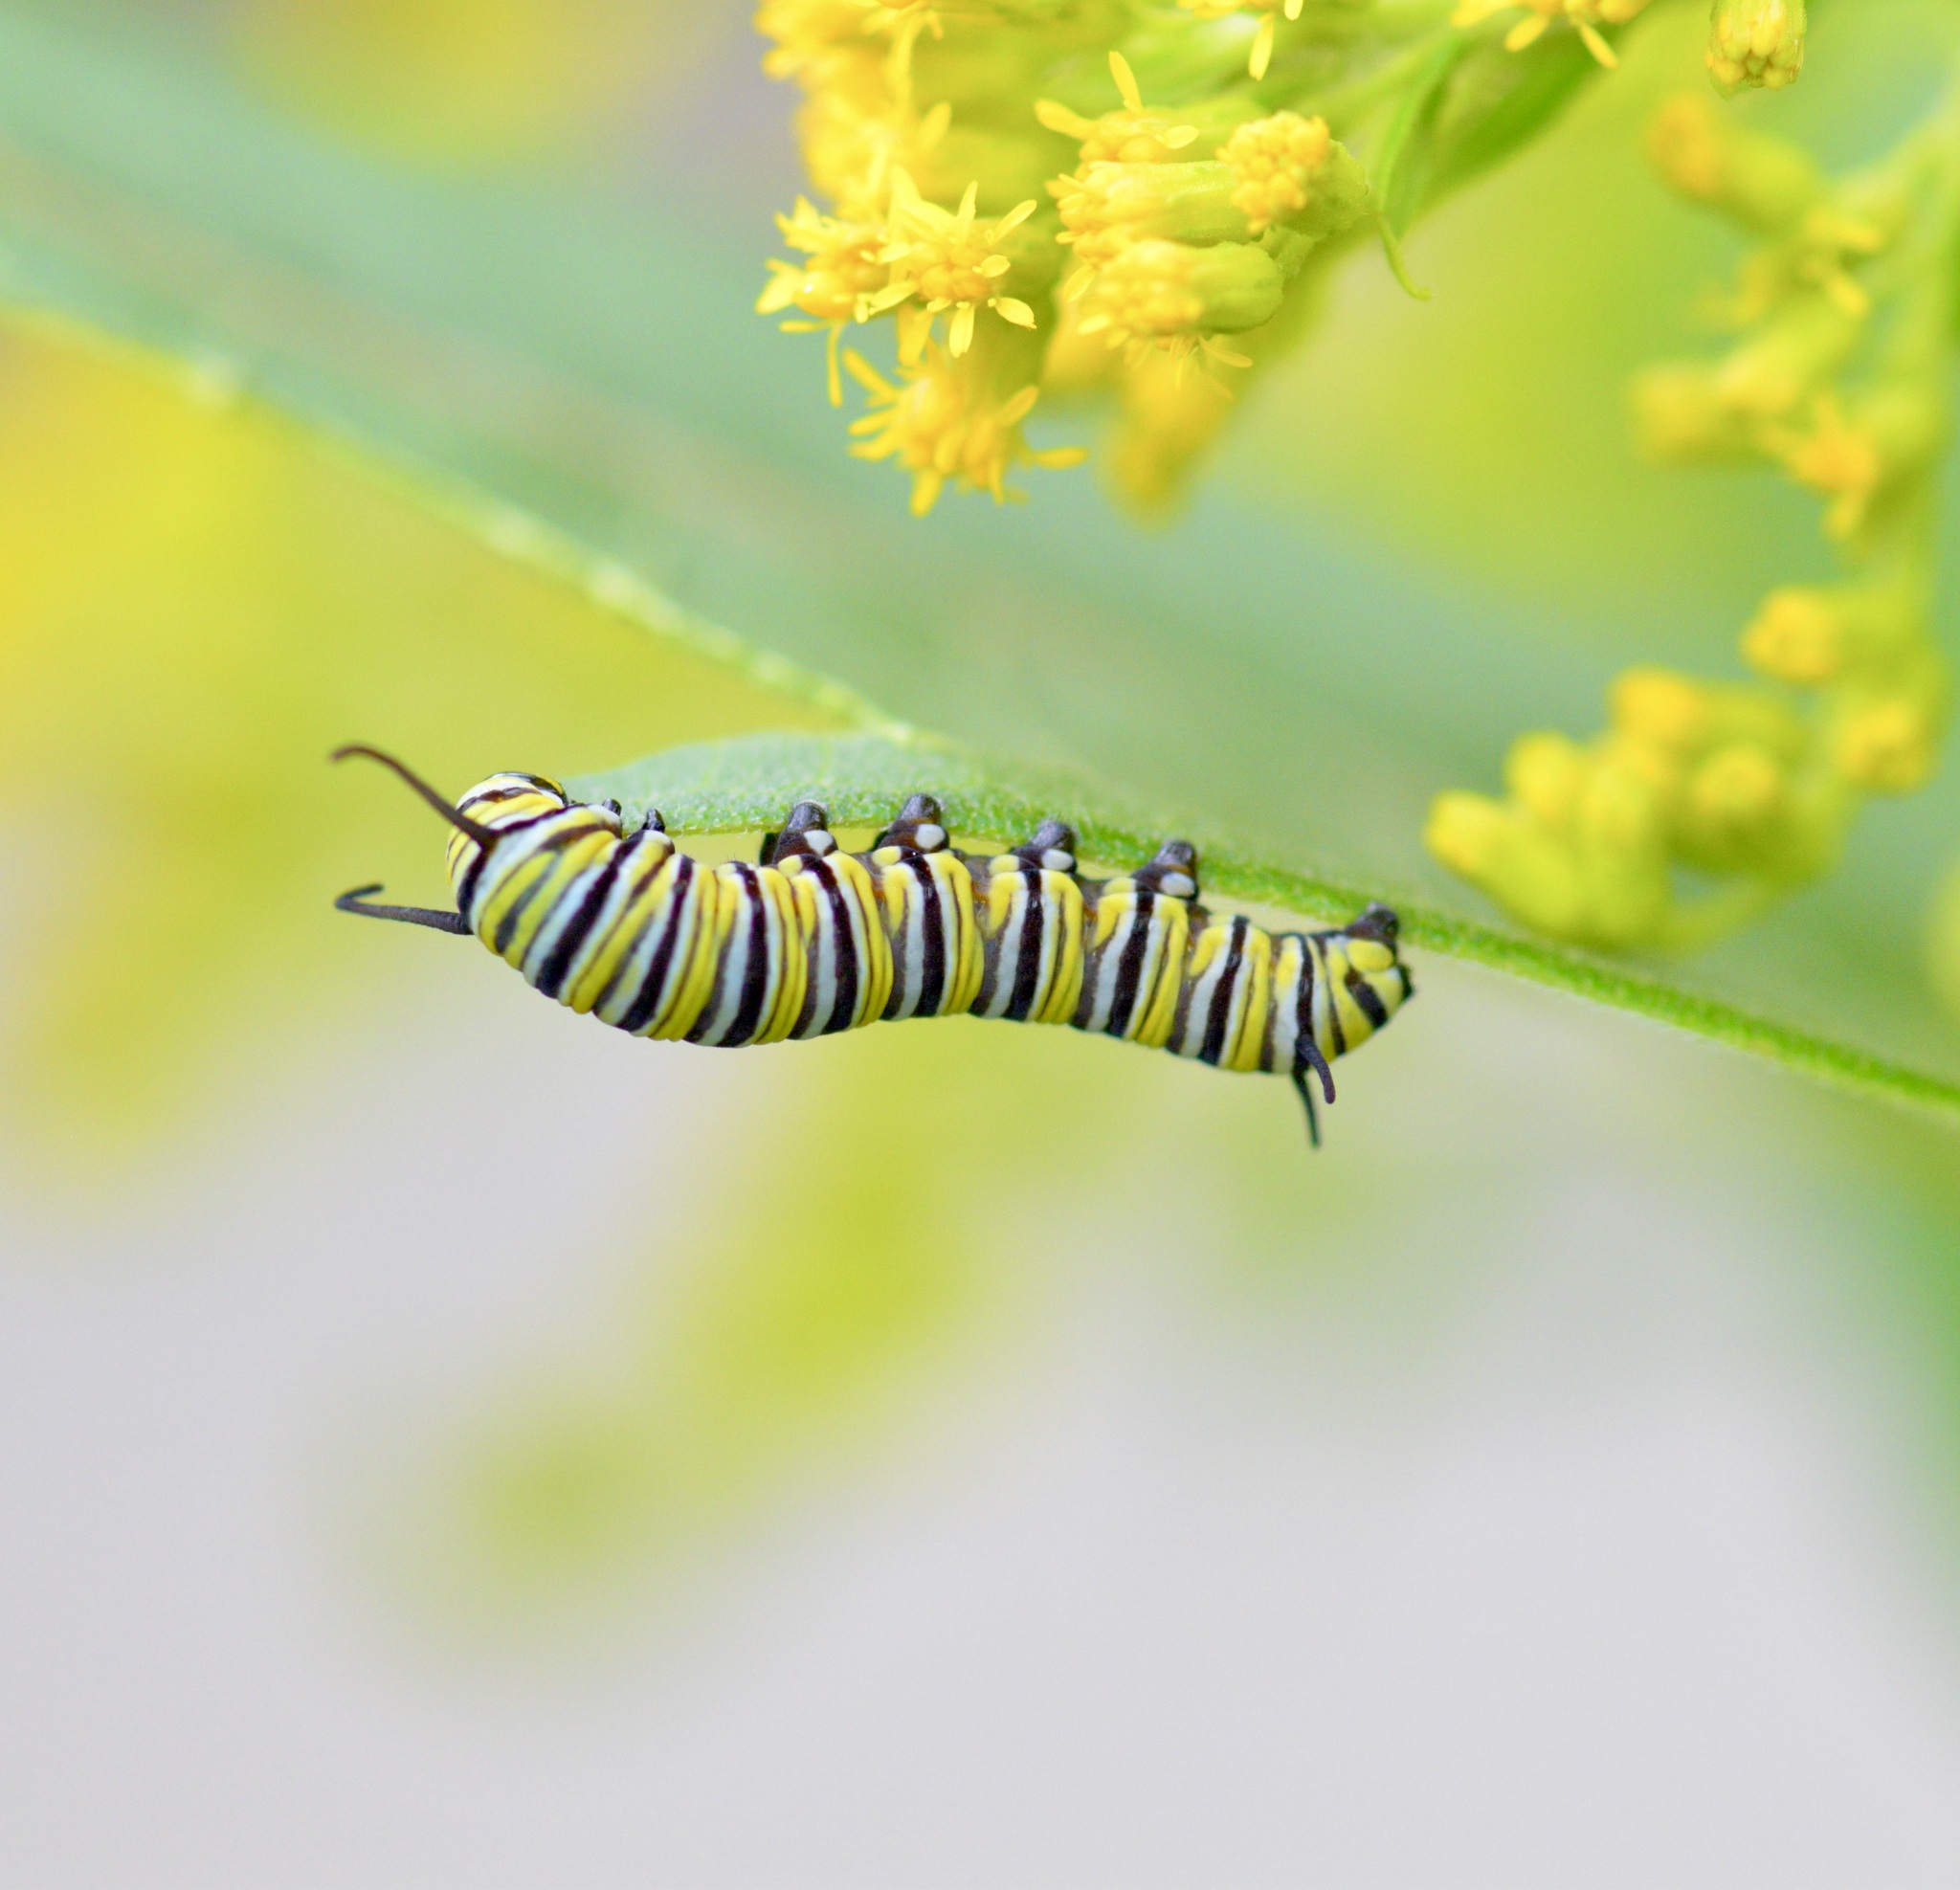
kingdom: Animalia
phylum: Arthropoda
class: Insecta
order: Lepidoptera
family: Nymphalidae
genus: Danaus
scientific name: Danaus plexippus
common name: Monarch
